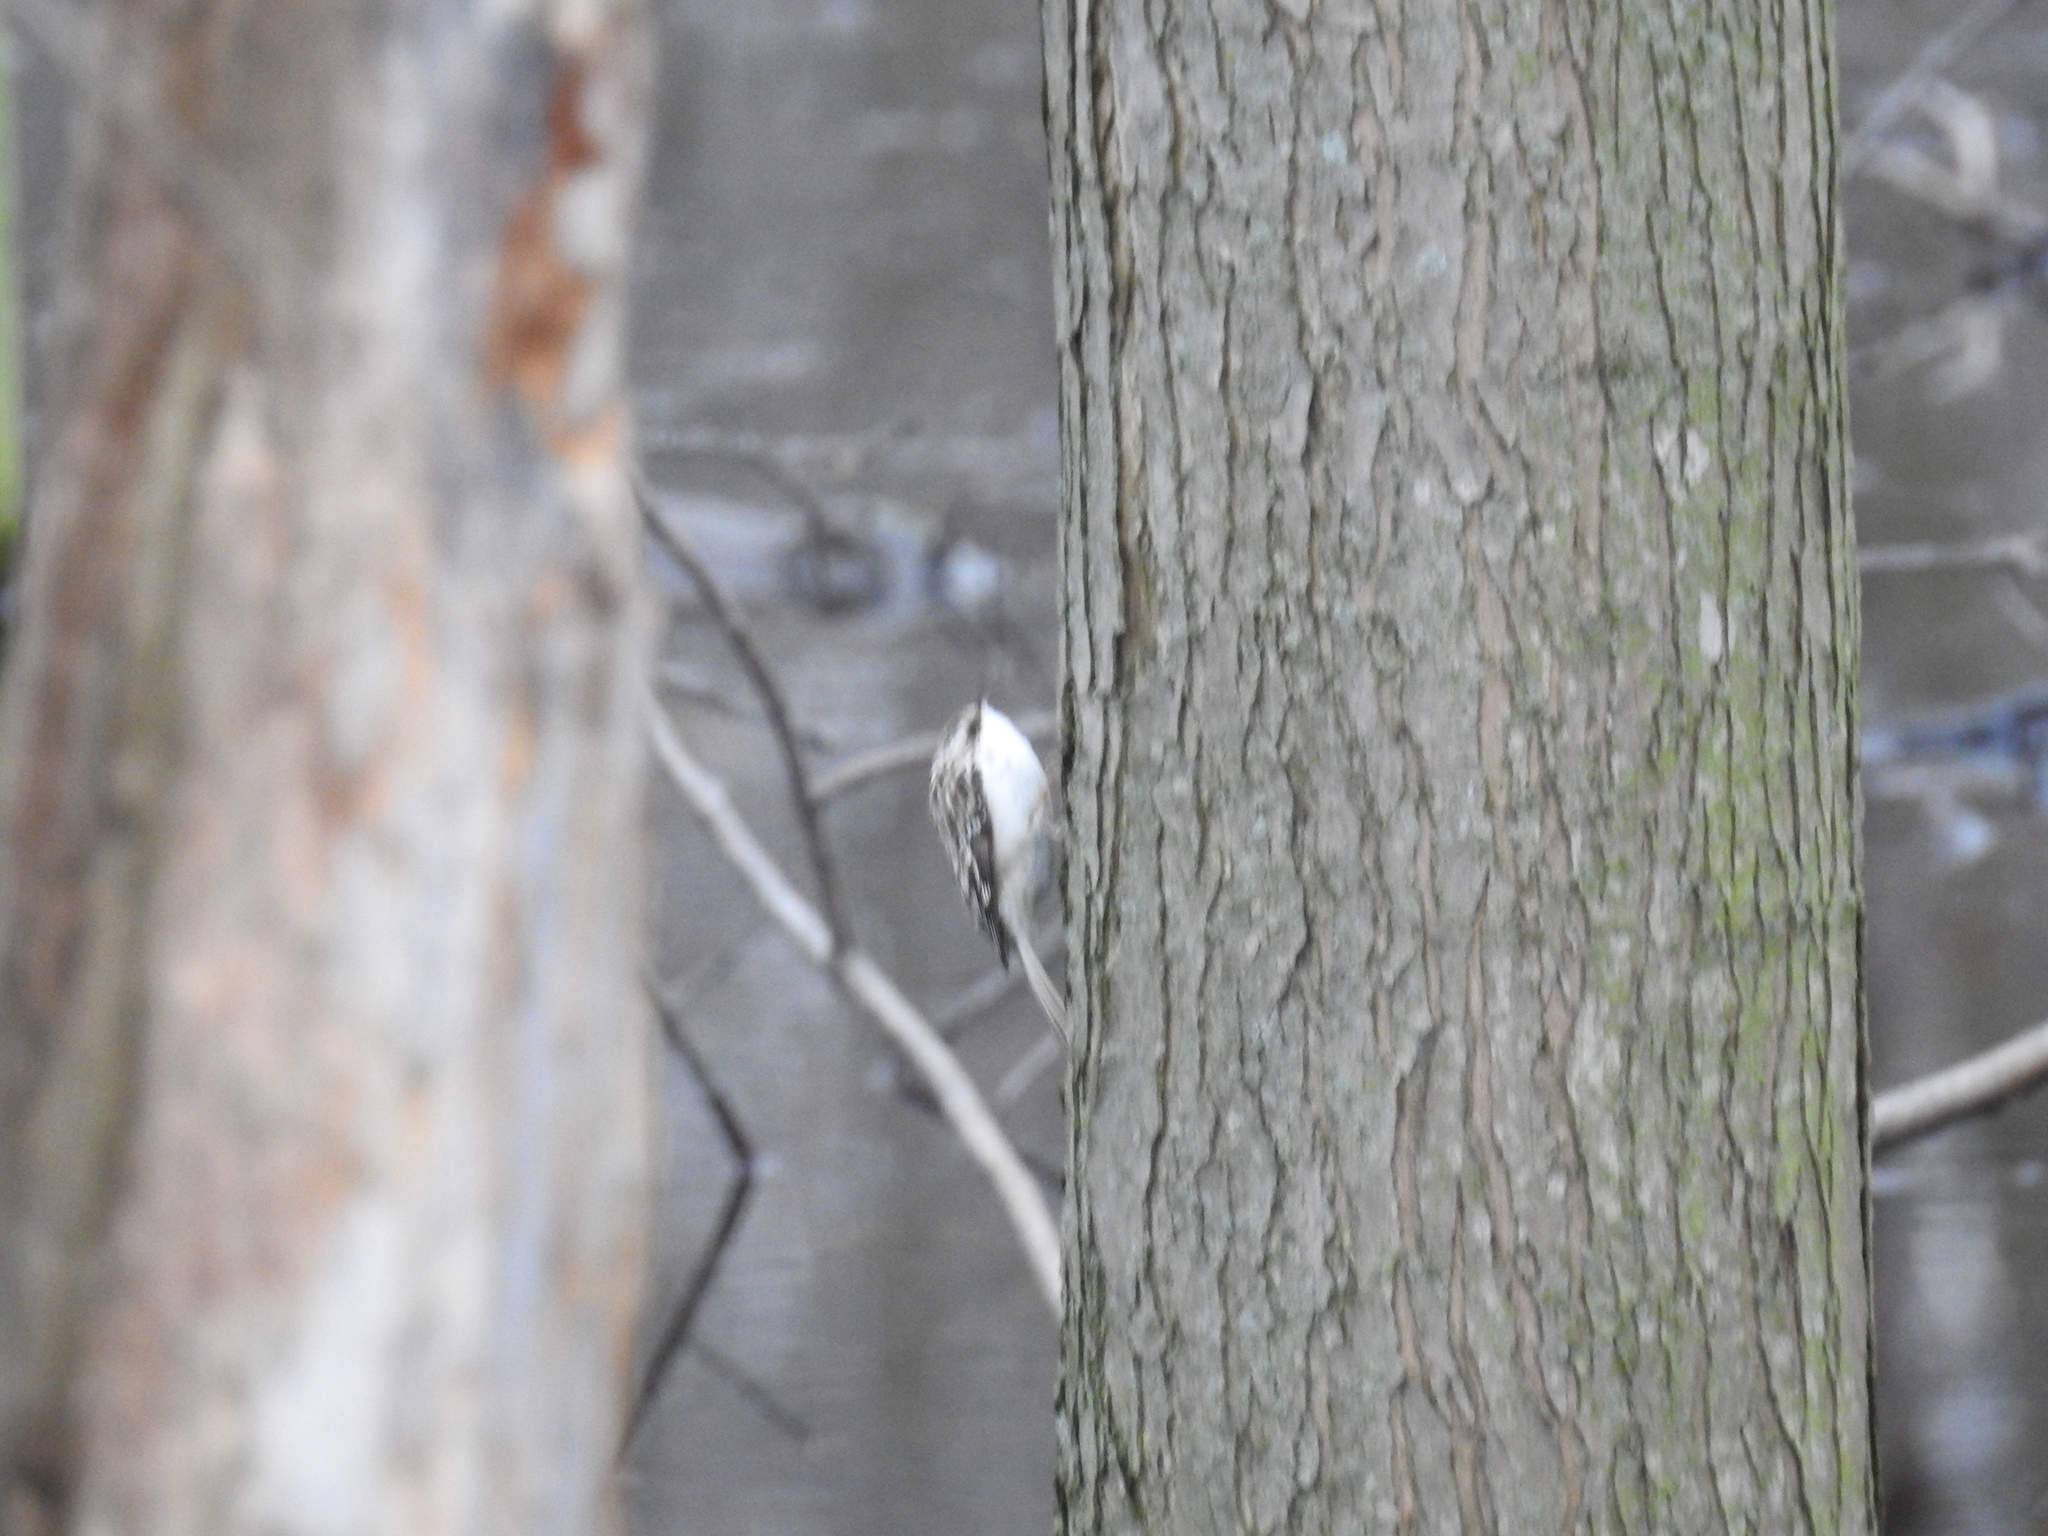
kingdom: Animalia
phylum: Chordata
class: Aves
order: Passeriformes
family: Certhiidae
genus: Certhia
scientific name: Certhia americana
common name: Brown creeper
